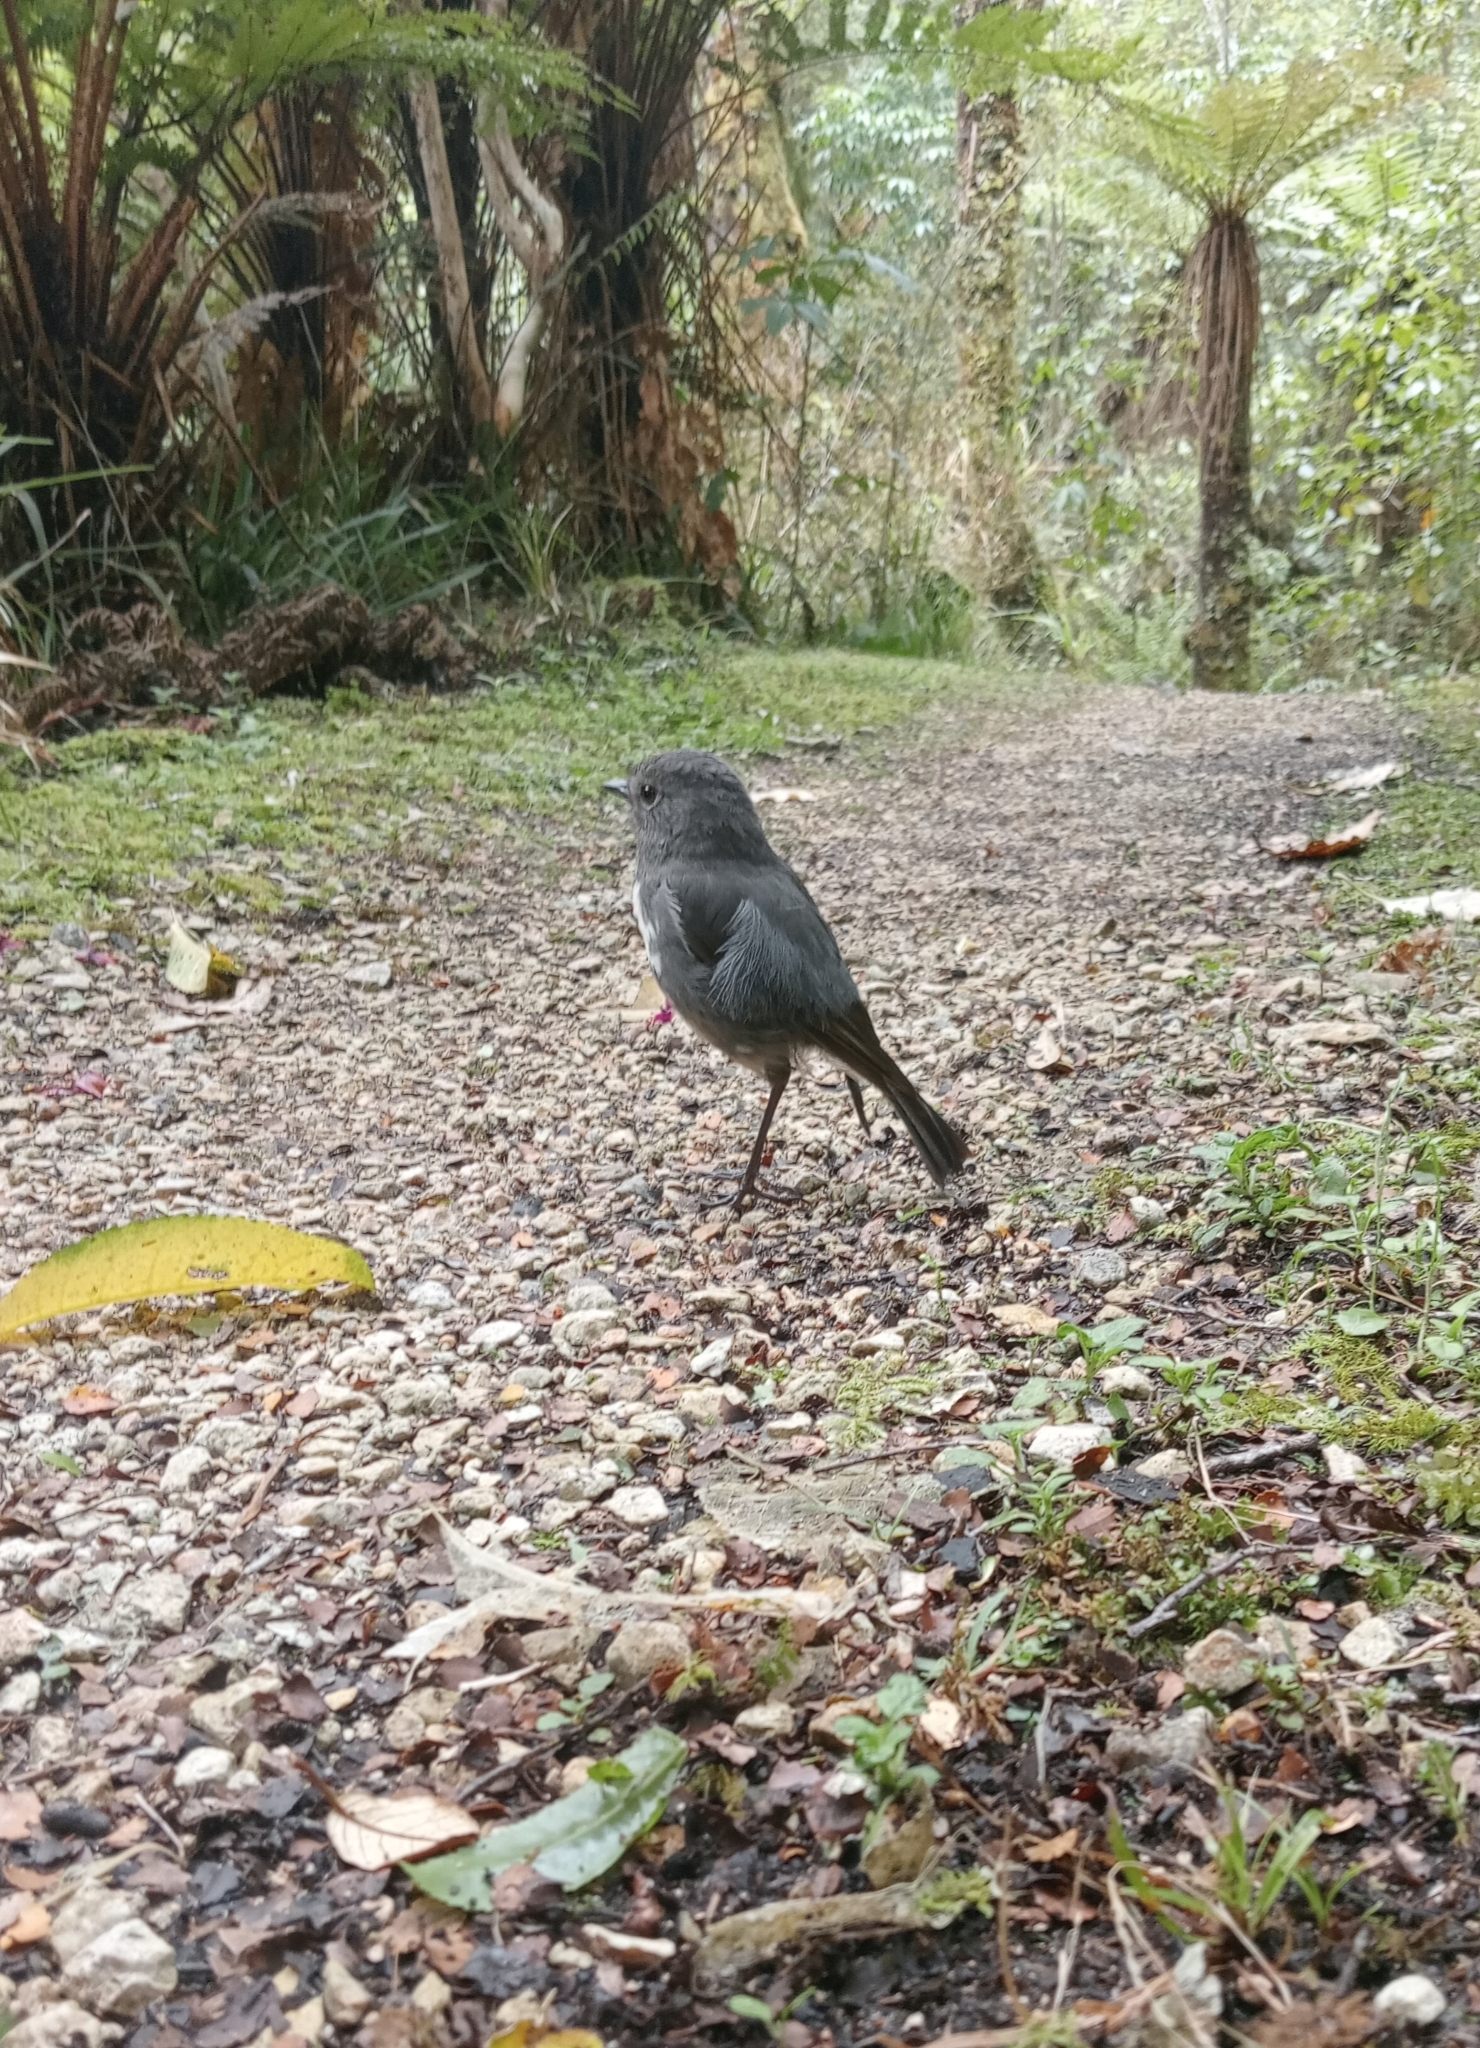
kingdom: Animalia
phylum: Chordata
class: Aves
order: Passeriformes
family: Petroicidae
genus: Petroica
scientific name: Petroica australis
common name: New zealand robin
